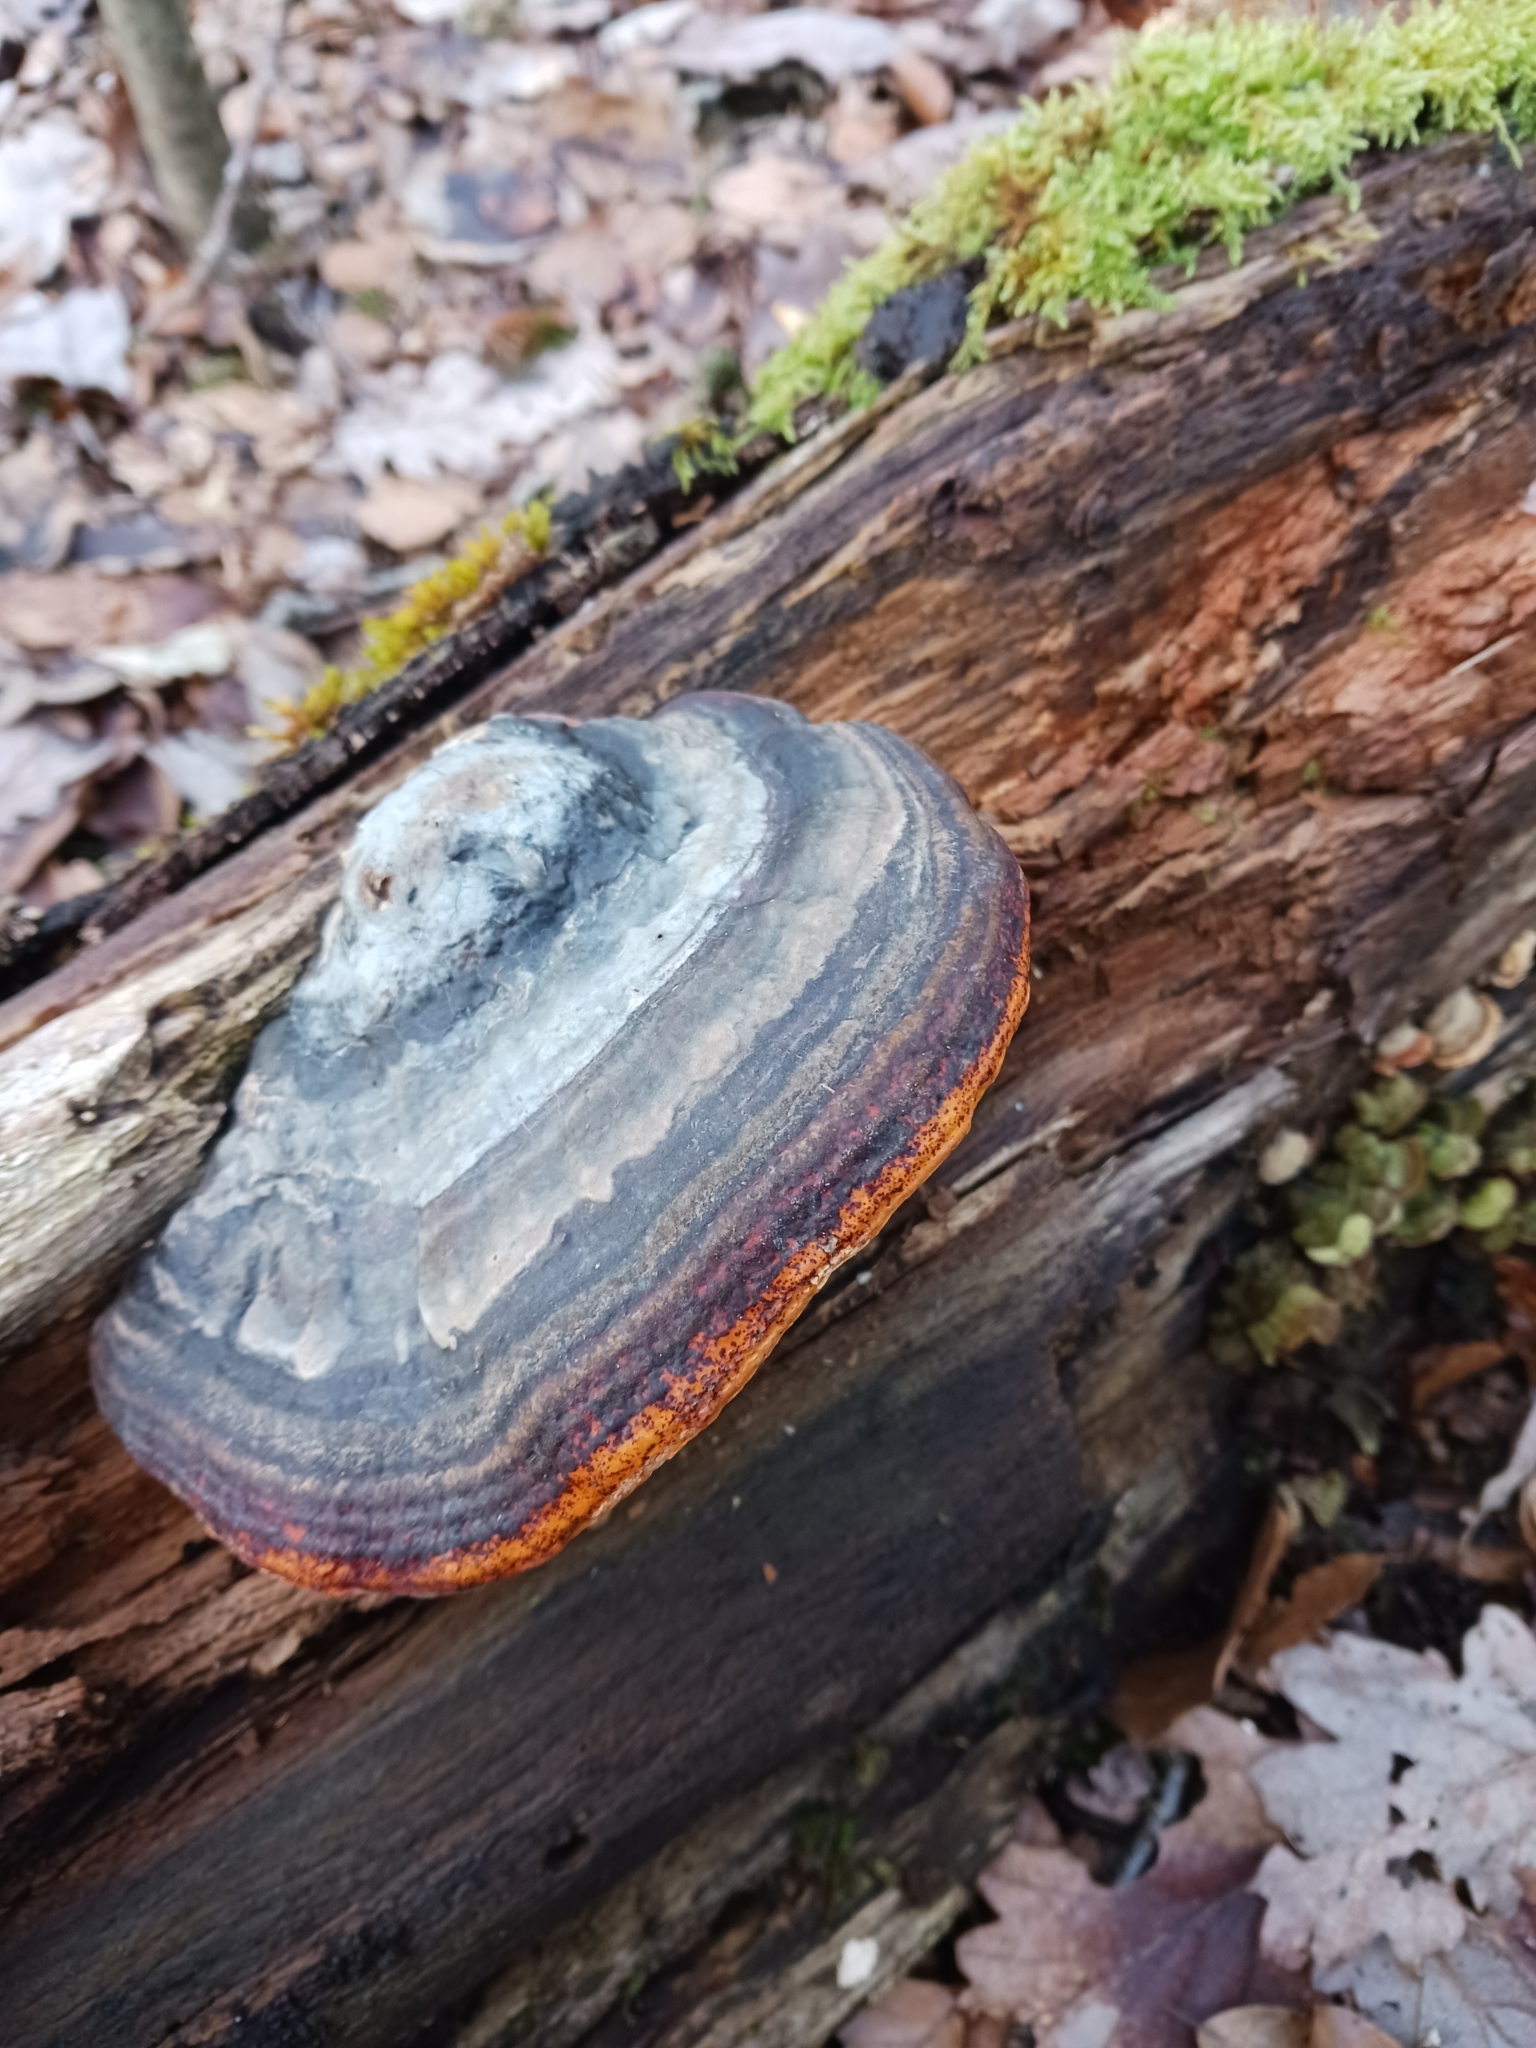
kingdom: Fungi
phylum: Basidiomycota
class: Agaricomycetes
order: Polyporales
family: Fomitopsidaceae
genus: Fomitopsis
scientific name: Fomitopsis pinicola
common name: Red-belted bracket
